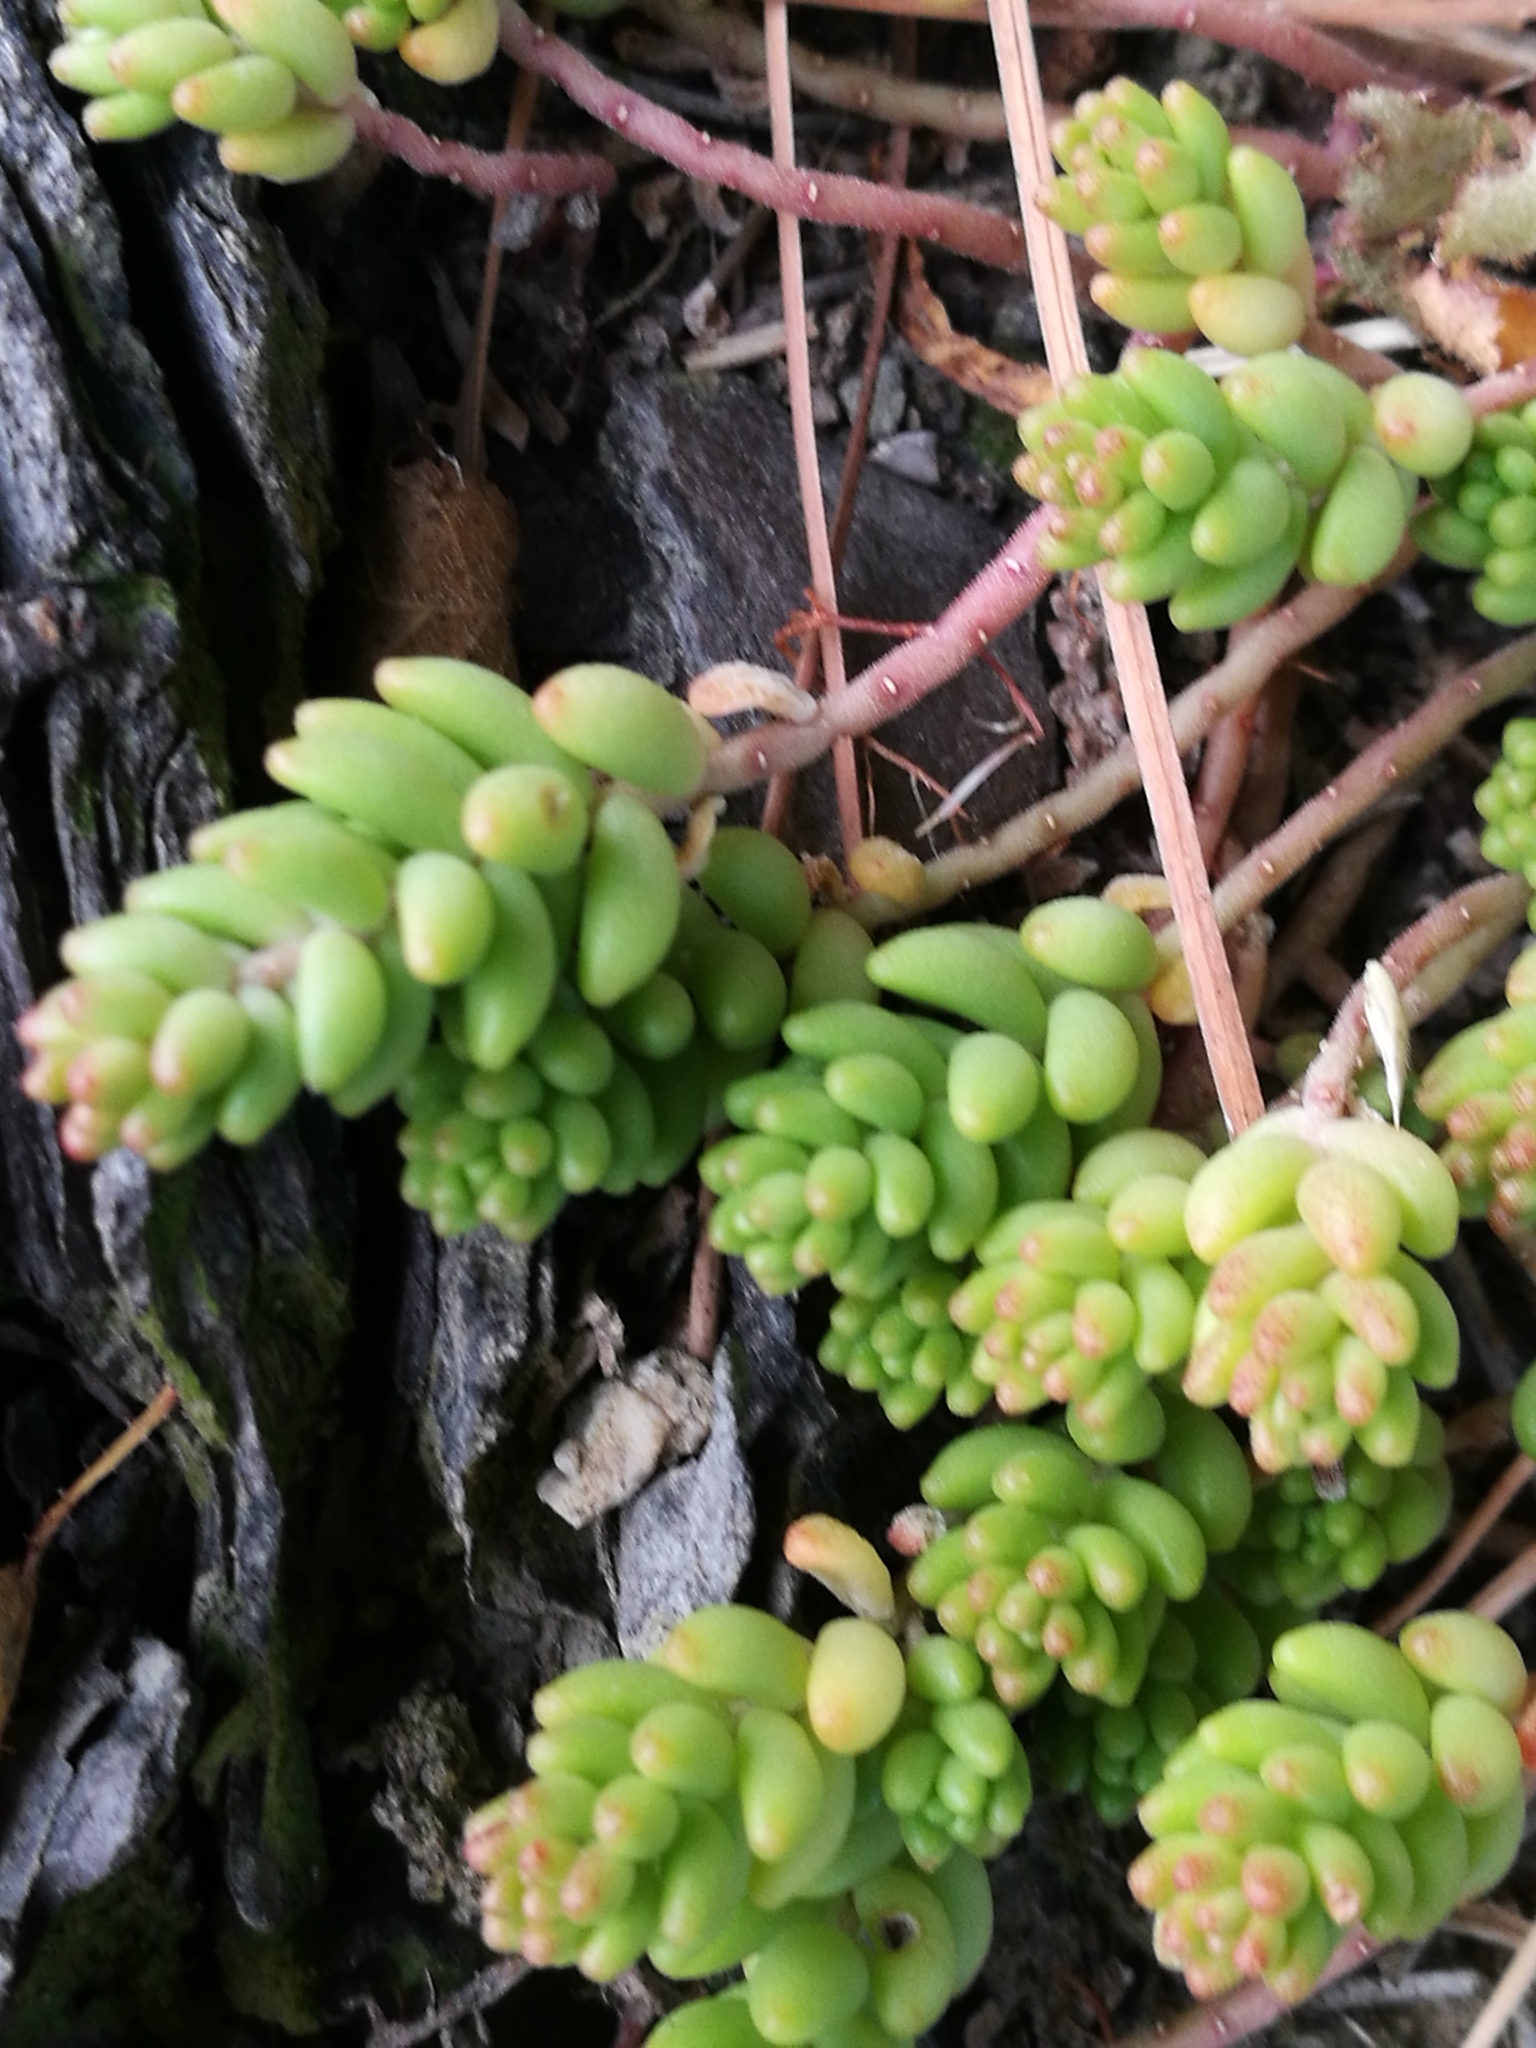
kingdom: Plantae
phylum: Tracheophyta
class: Magnoliopsida
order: Saxifragales
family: Crassulaceae
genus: Sedum
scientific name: Sedum album
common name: White stonecrop
